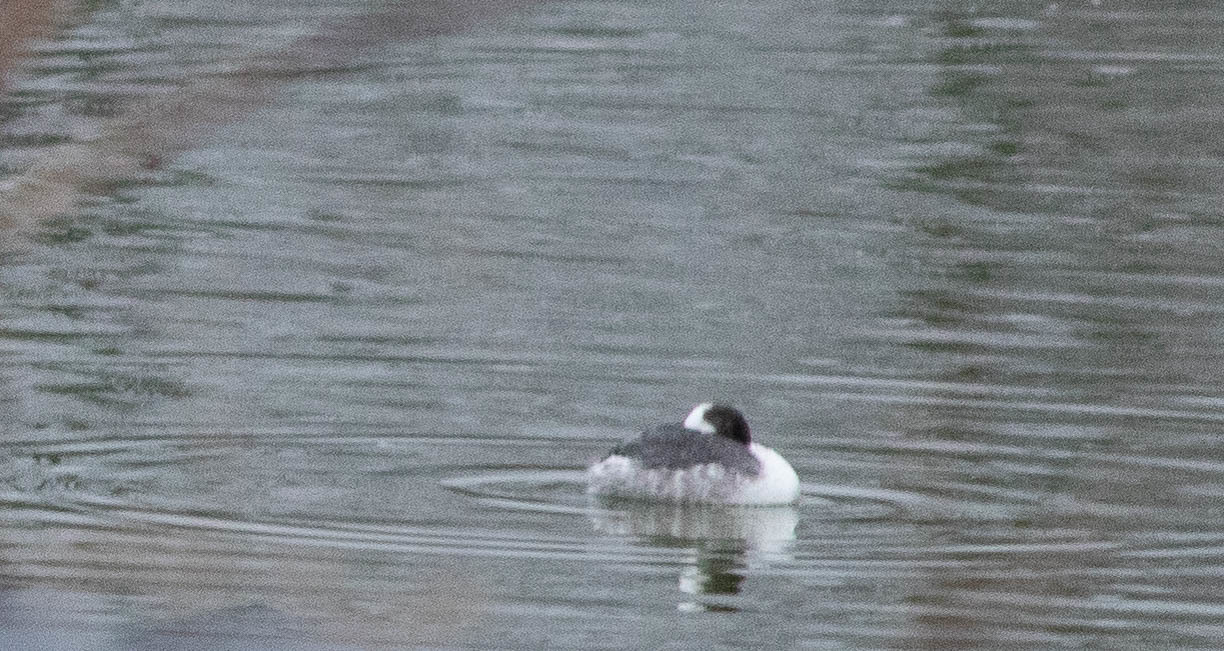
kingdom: Animalia
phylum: Chordata
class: Aves
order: Podicipediformes
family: Podicipedidae
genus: Podiceps
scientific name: Podiceps auritus
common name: Horned grebe
